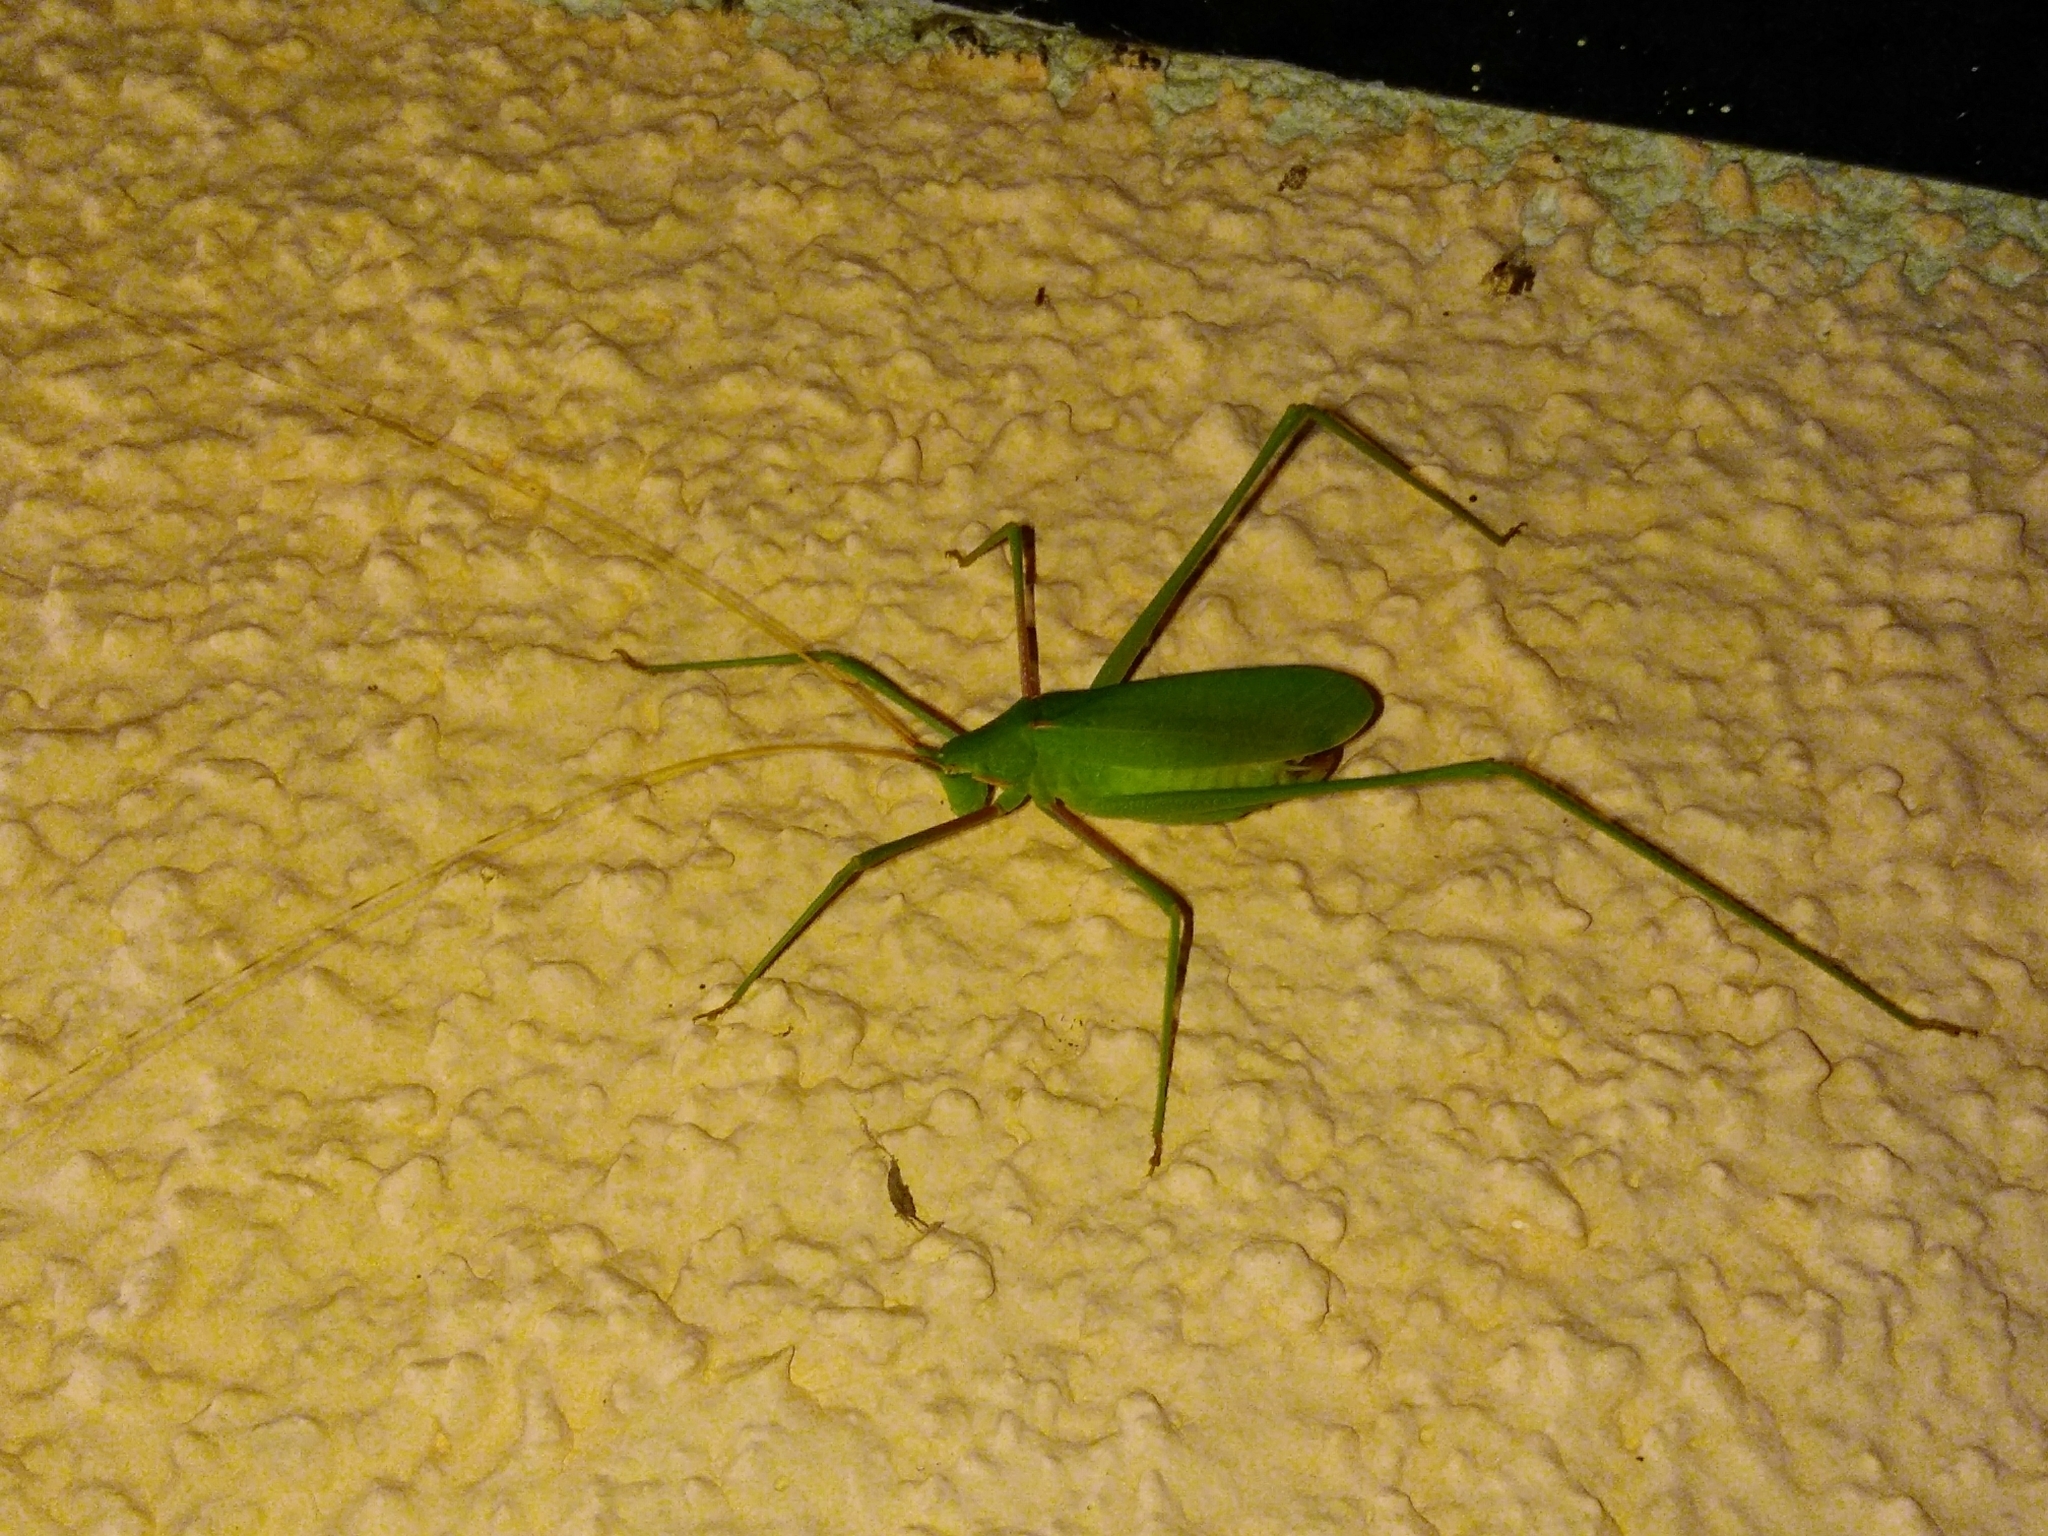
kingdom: Animalia
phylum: Arthropoda
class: Insecta
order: Orthoptera
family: Tettigoniidae
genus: Acrometopa
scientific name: Acrometopa servillea
